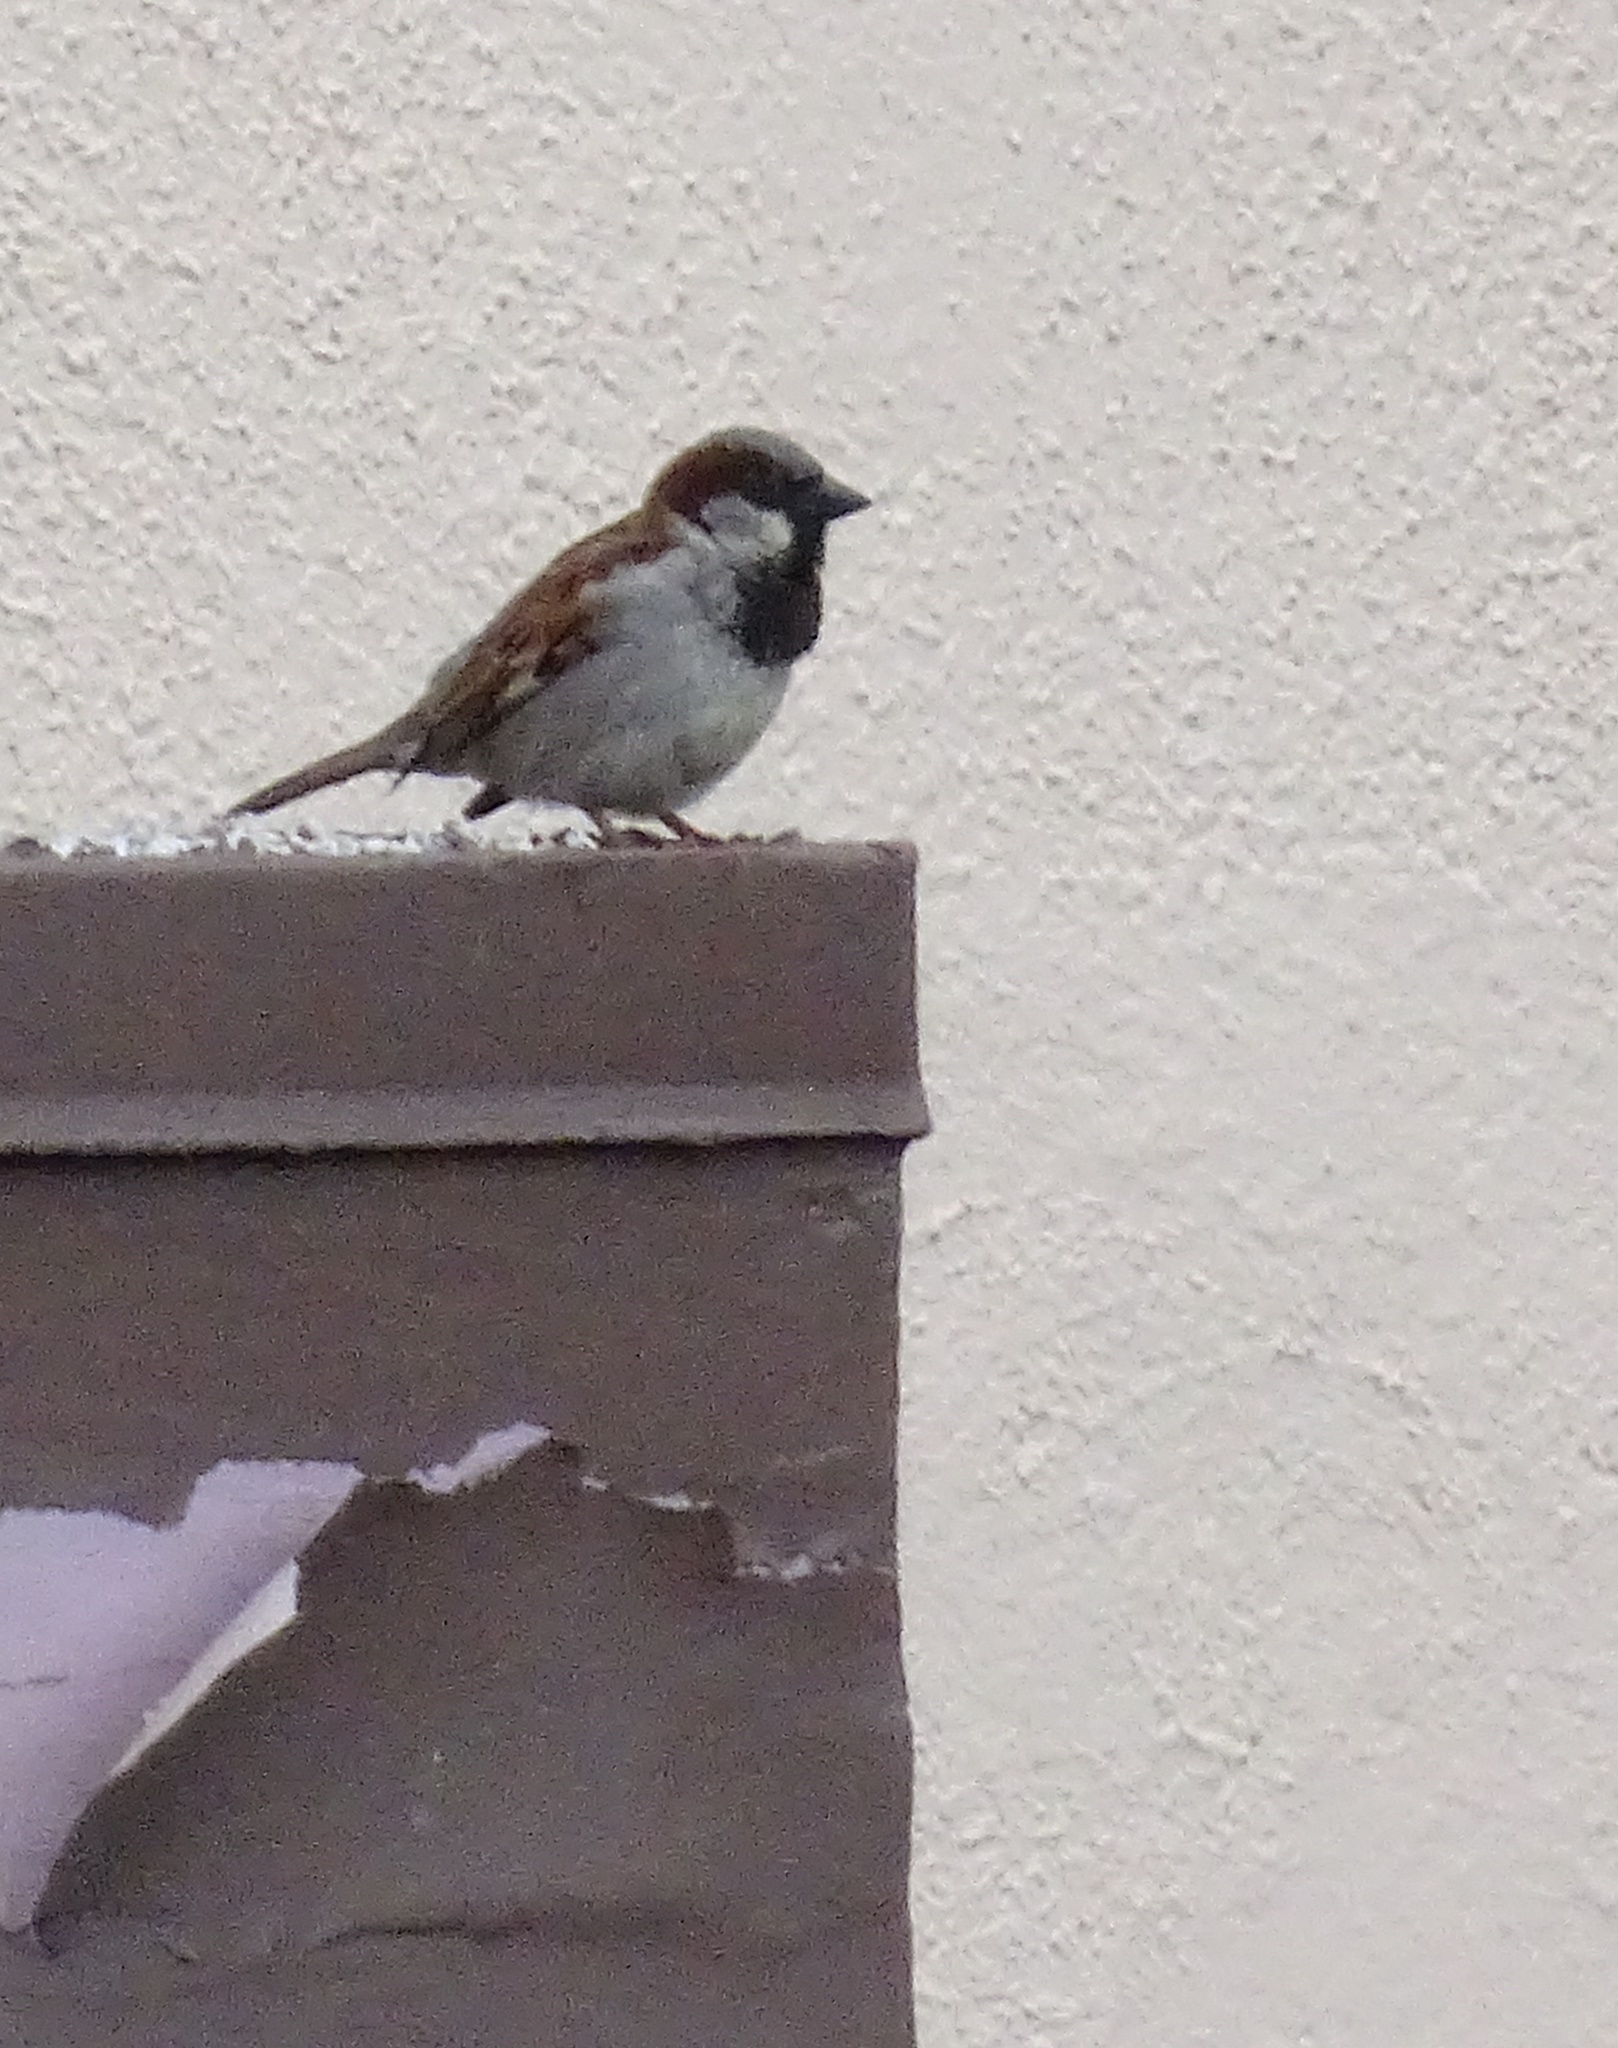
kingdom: Animalia
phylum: Chordata
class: Aves
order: Passeriformes
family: Passeridae
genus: Passer
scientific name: Passer domesticus
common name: House sparrow
